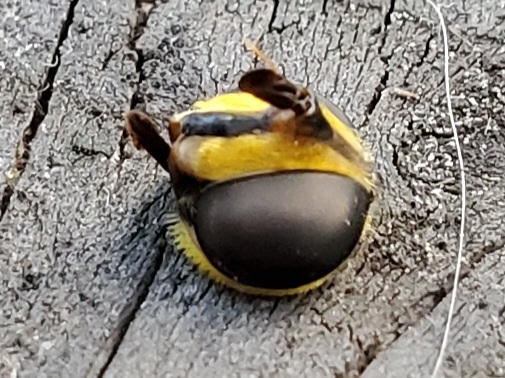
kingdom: Animalia
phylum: Arthropoda
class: Insecta
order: Diptera
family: Syrphidae
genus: Meromacrus
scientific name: Meromacrus acutus
